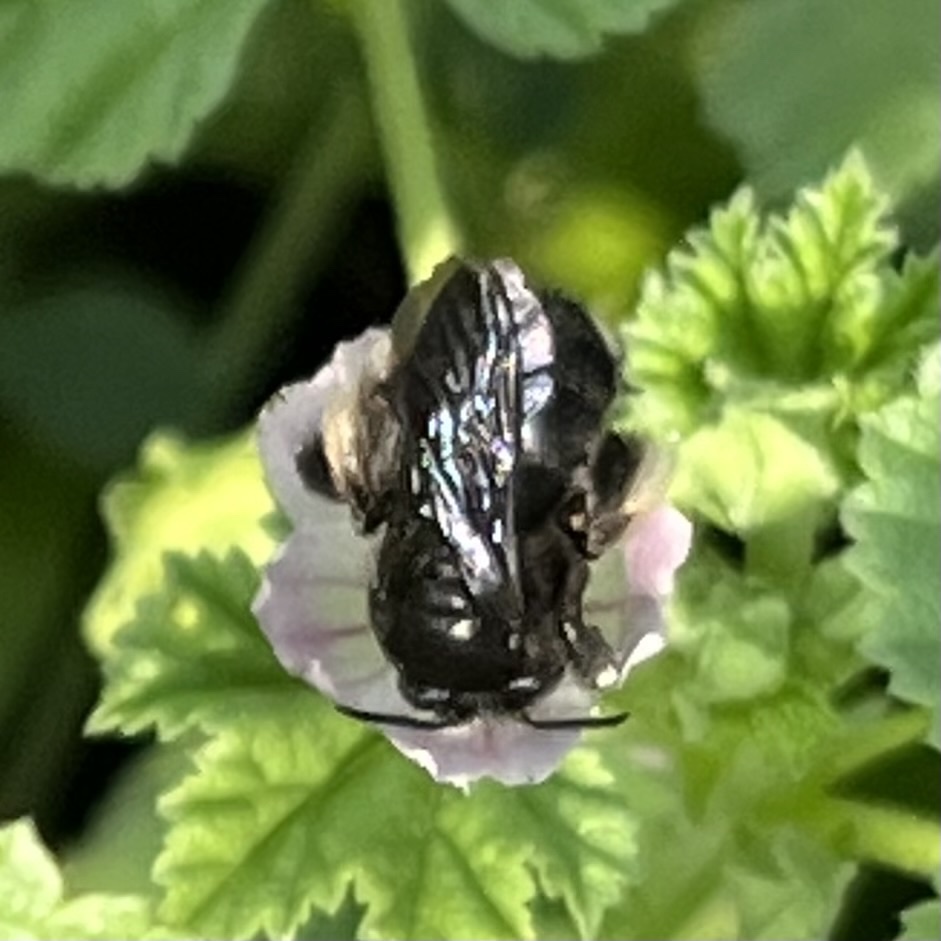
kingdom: Animalia
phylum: Arthropoda
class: Insecta
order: Hymenoptera
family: Apidae
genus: Melissodes
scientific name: Melissodes bimaculatus
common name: Two-spotted long-horned bee
